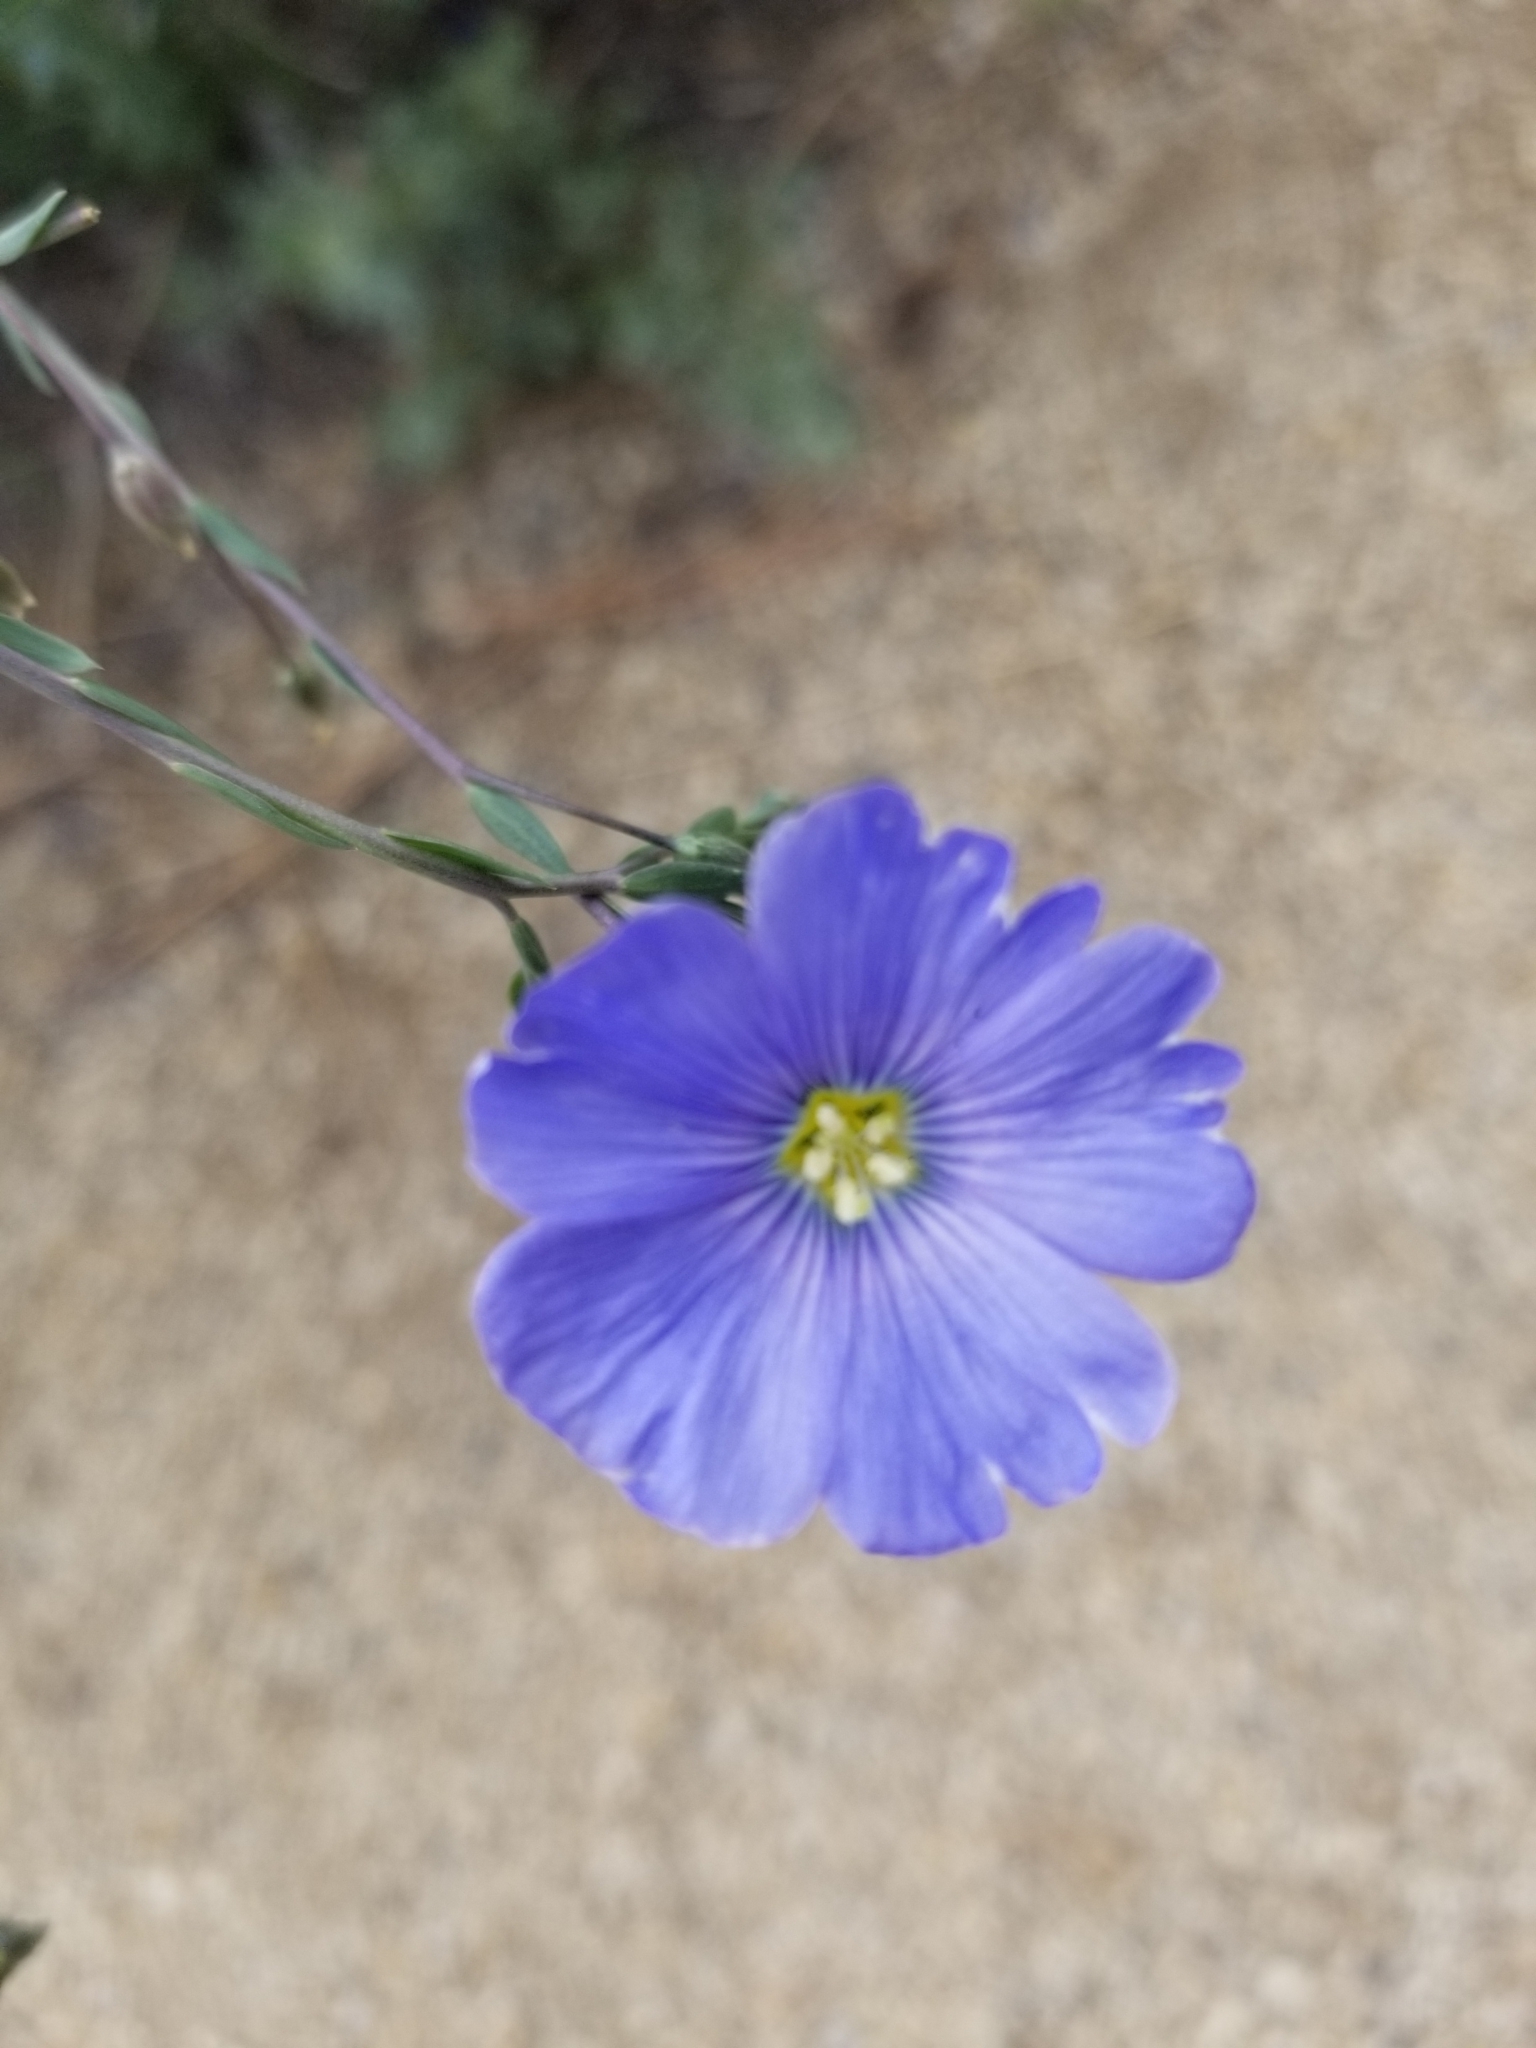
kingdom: Plantae
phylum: Tracheophyta
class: Magnoliopsida
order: Malpighiales
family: Linaceae
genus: Linum
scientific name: Linum lewisii
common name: Prairie flax
